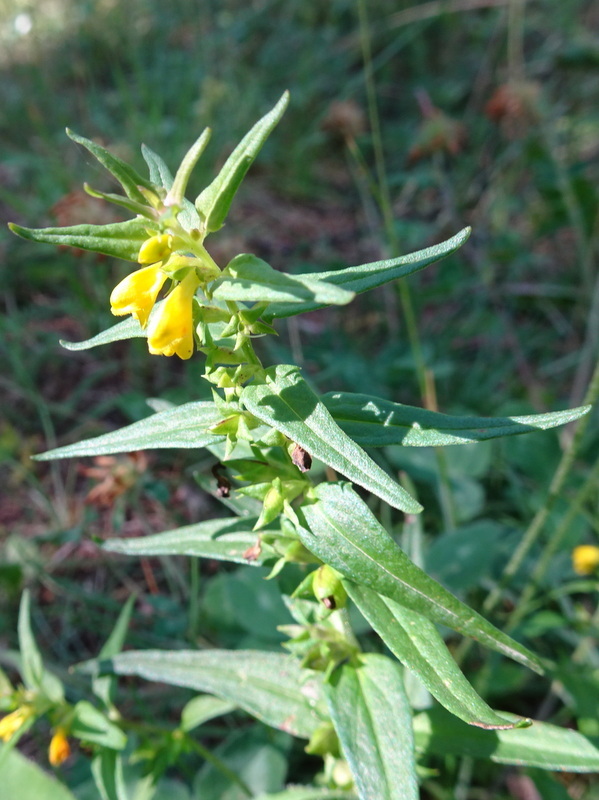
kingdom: Plantae
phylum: Tracheophyta
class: Magnoliopsida
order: Lamiales
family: Orobanchaceae
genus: Melampyrum
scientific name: Melampyrum sylvaticum
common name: Small cow-wheat
